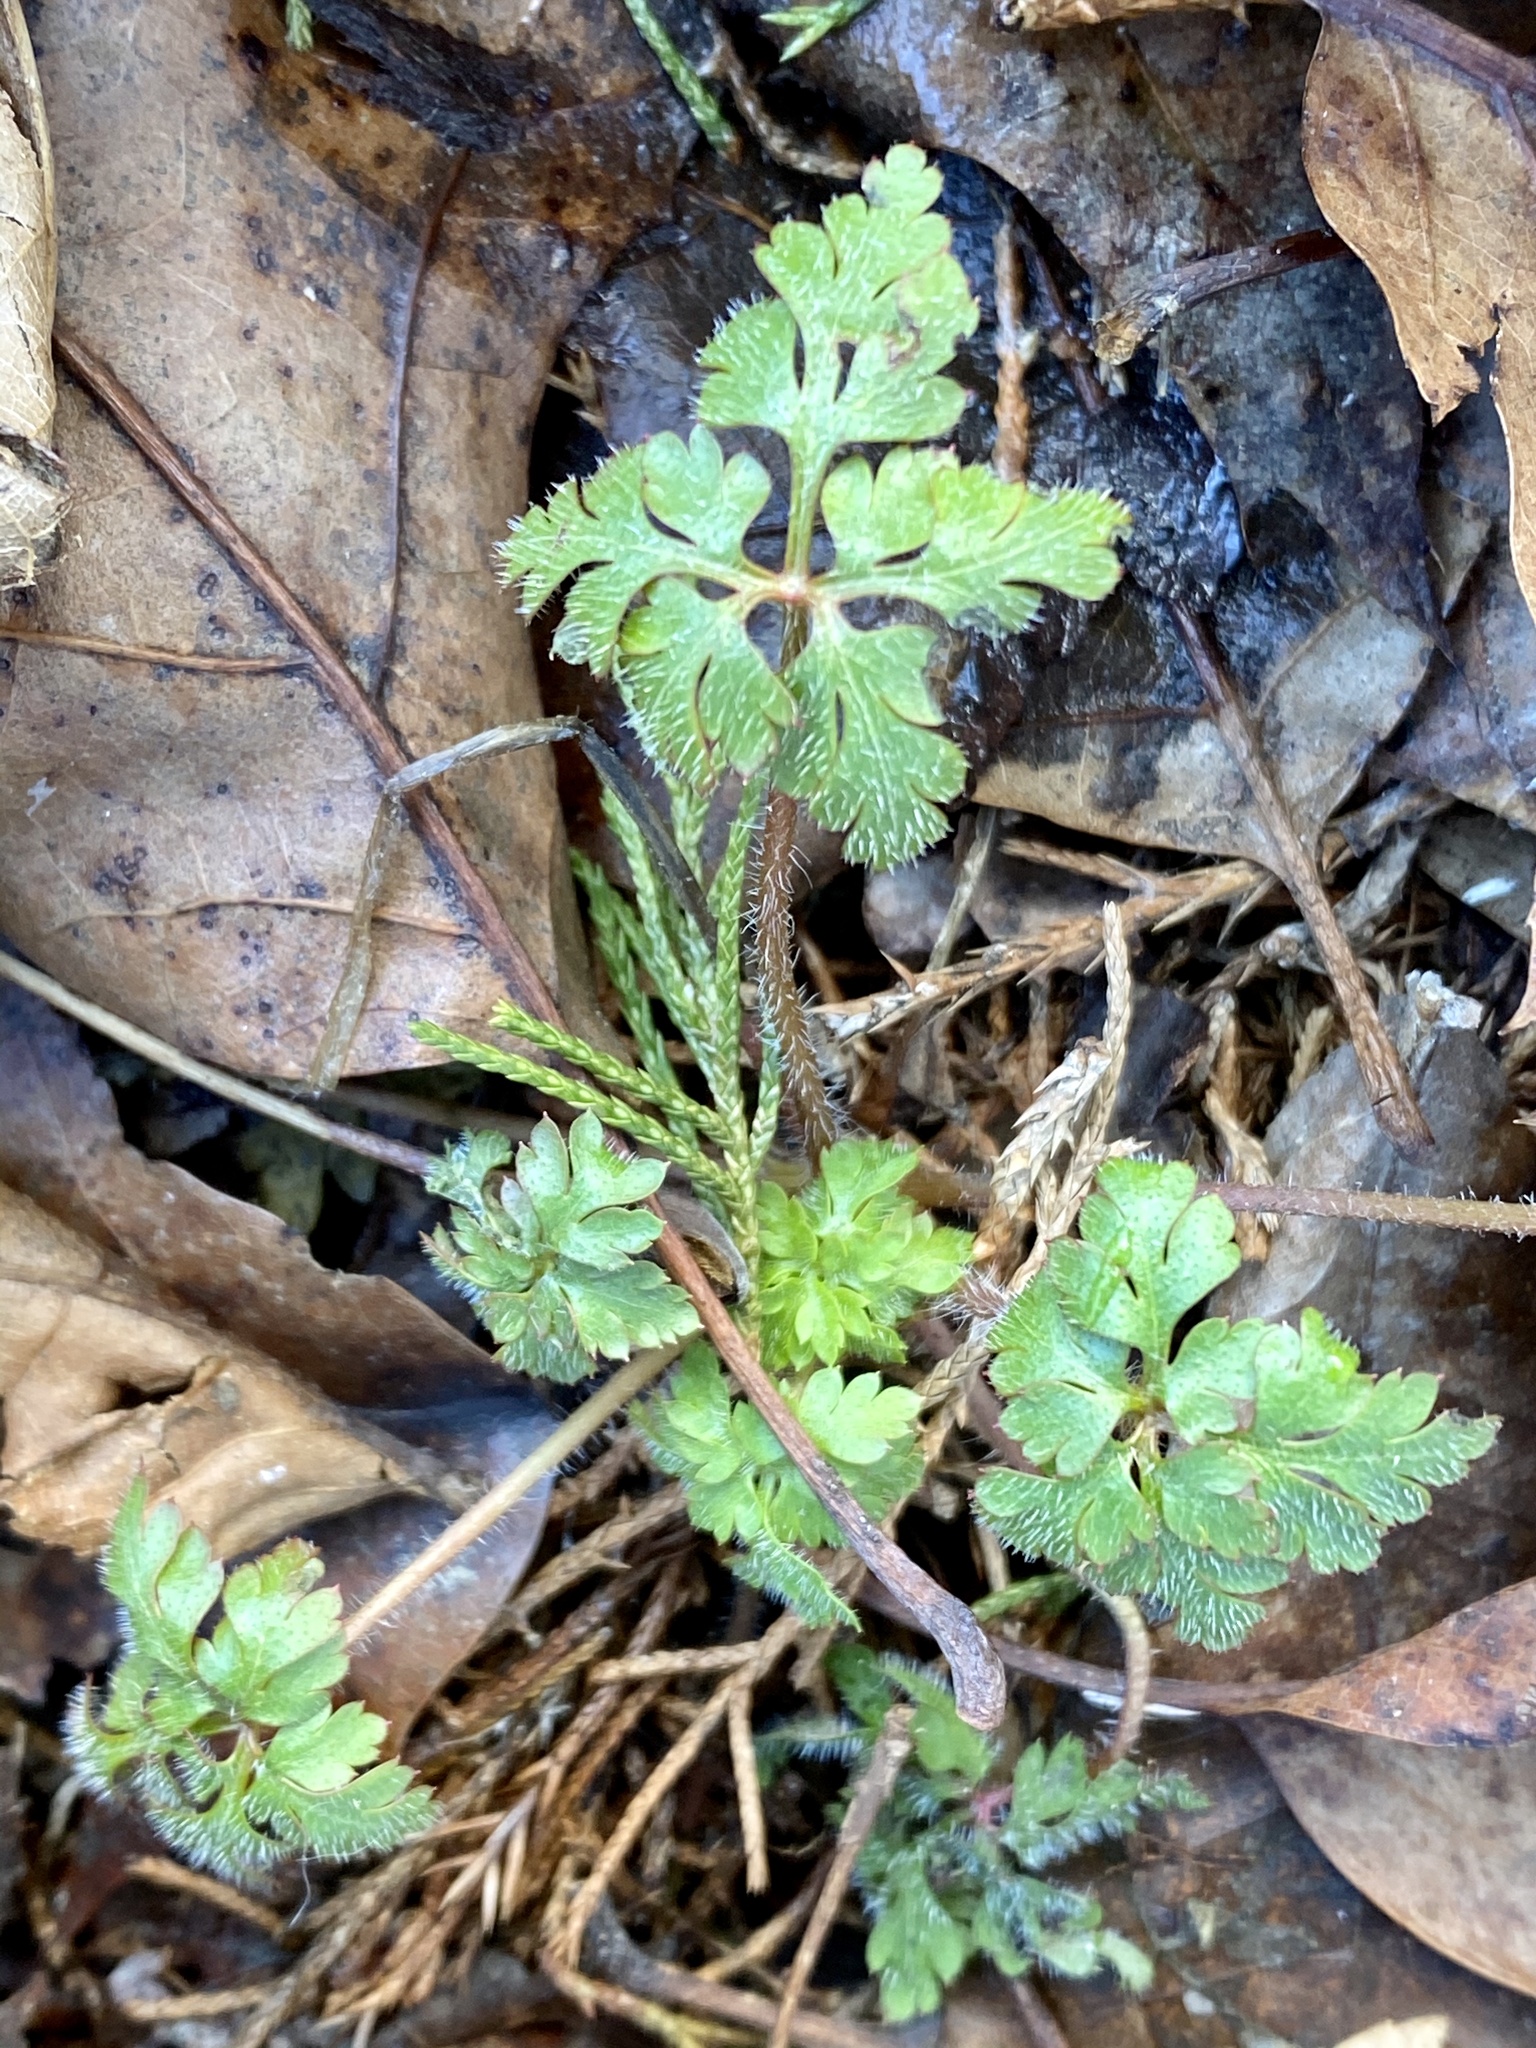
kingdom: Plantae
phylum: Tracheophyta
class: Magnoliopsida
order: Geraniales
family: Geraniaceae
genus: Geranium
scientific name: Geranium robertianum
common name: Herb-robert
